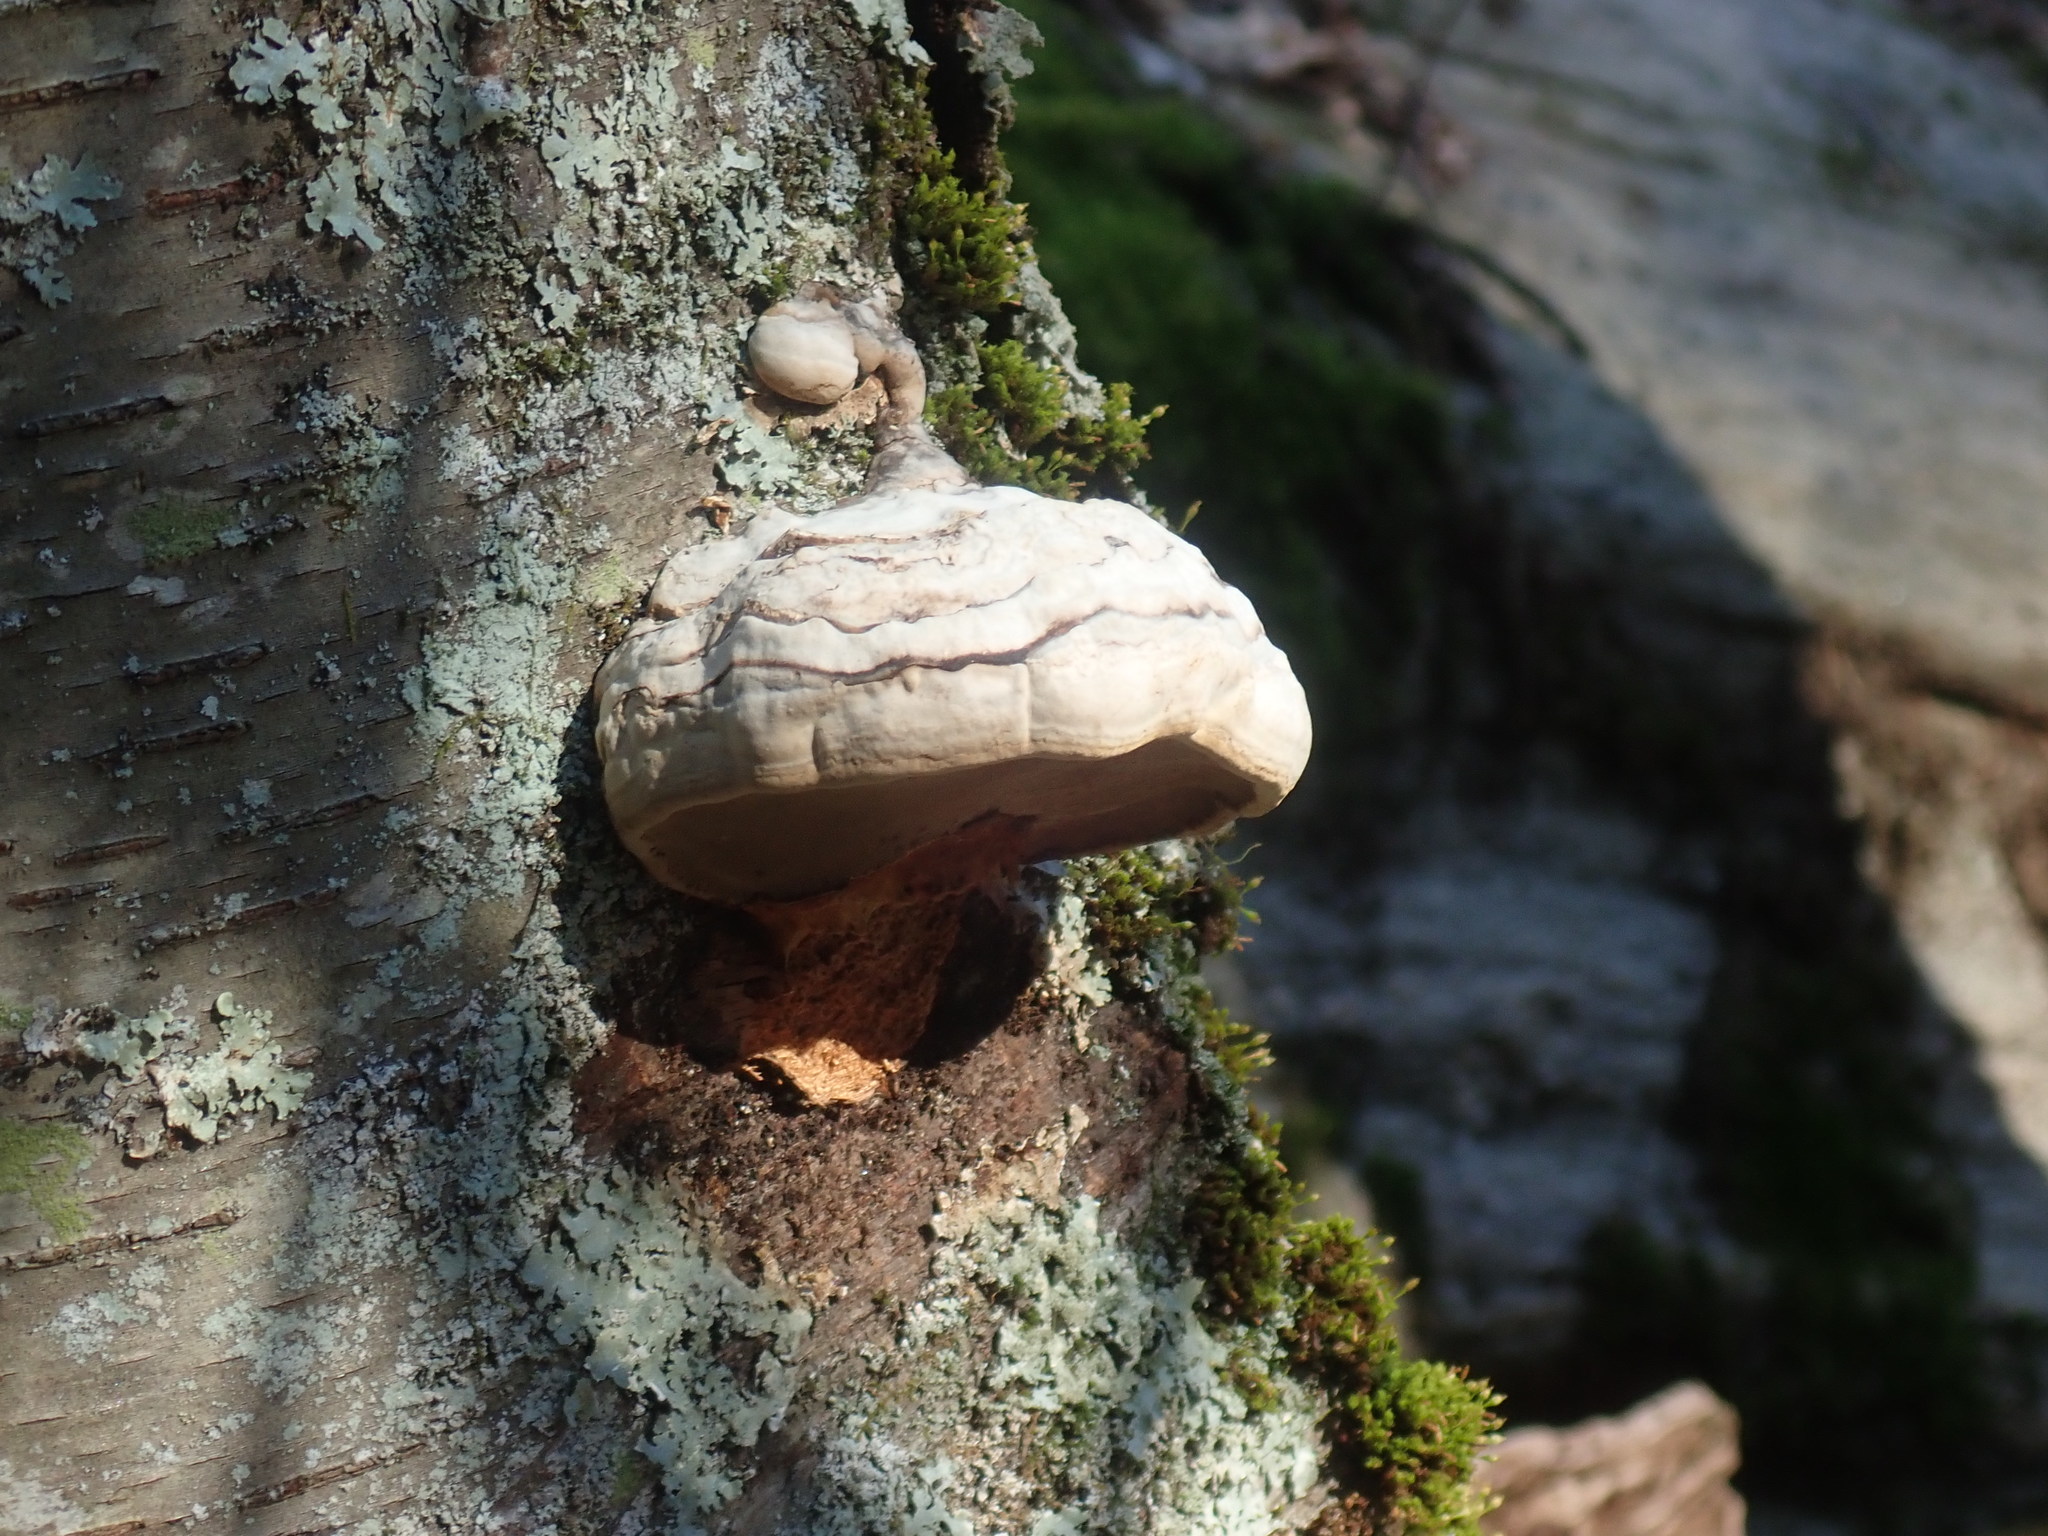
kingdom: Fungi
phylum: Basidiomycota
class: Agaricomycetes
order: Polyporales
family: Polyporaceae
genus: Fomes
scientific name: Fomes fomentarius
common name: Hoof fungus
